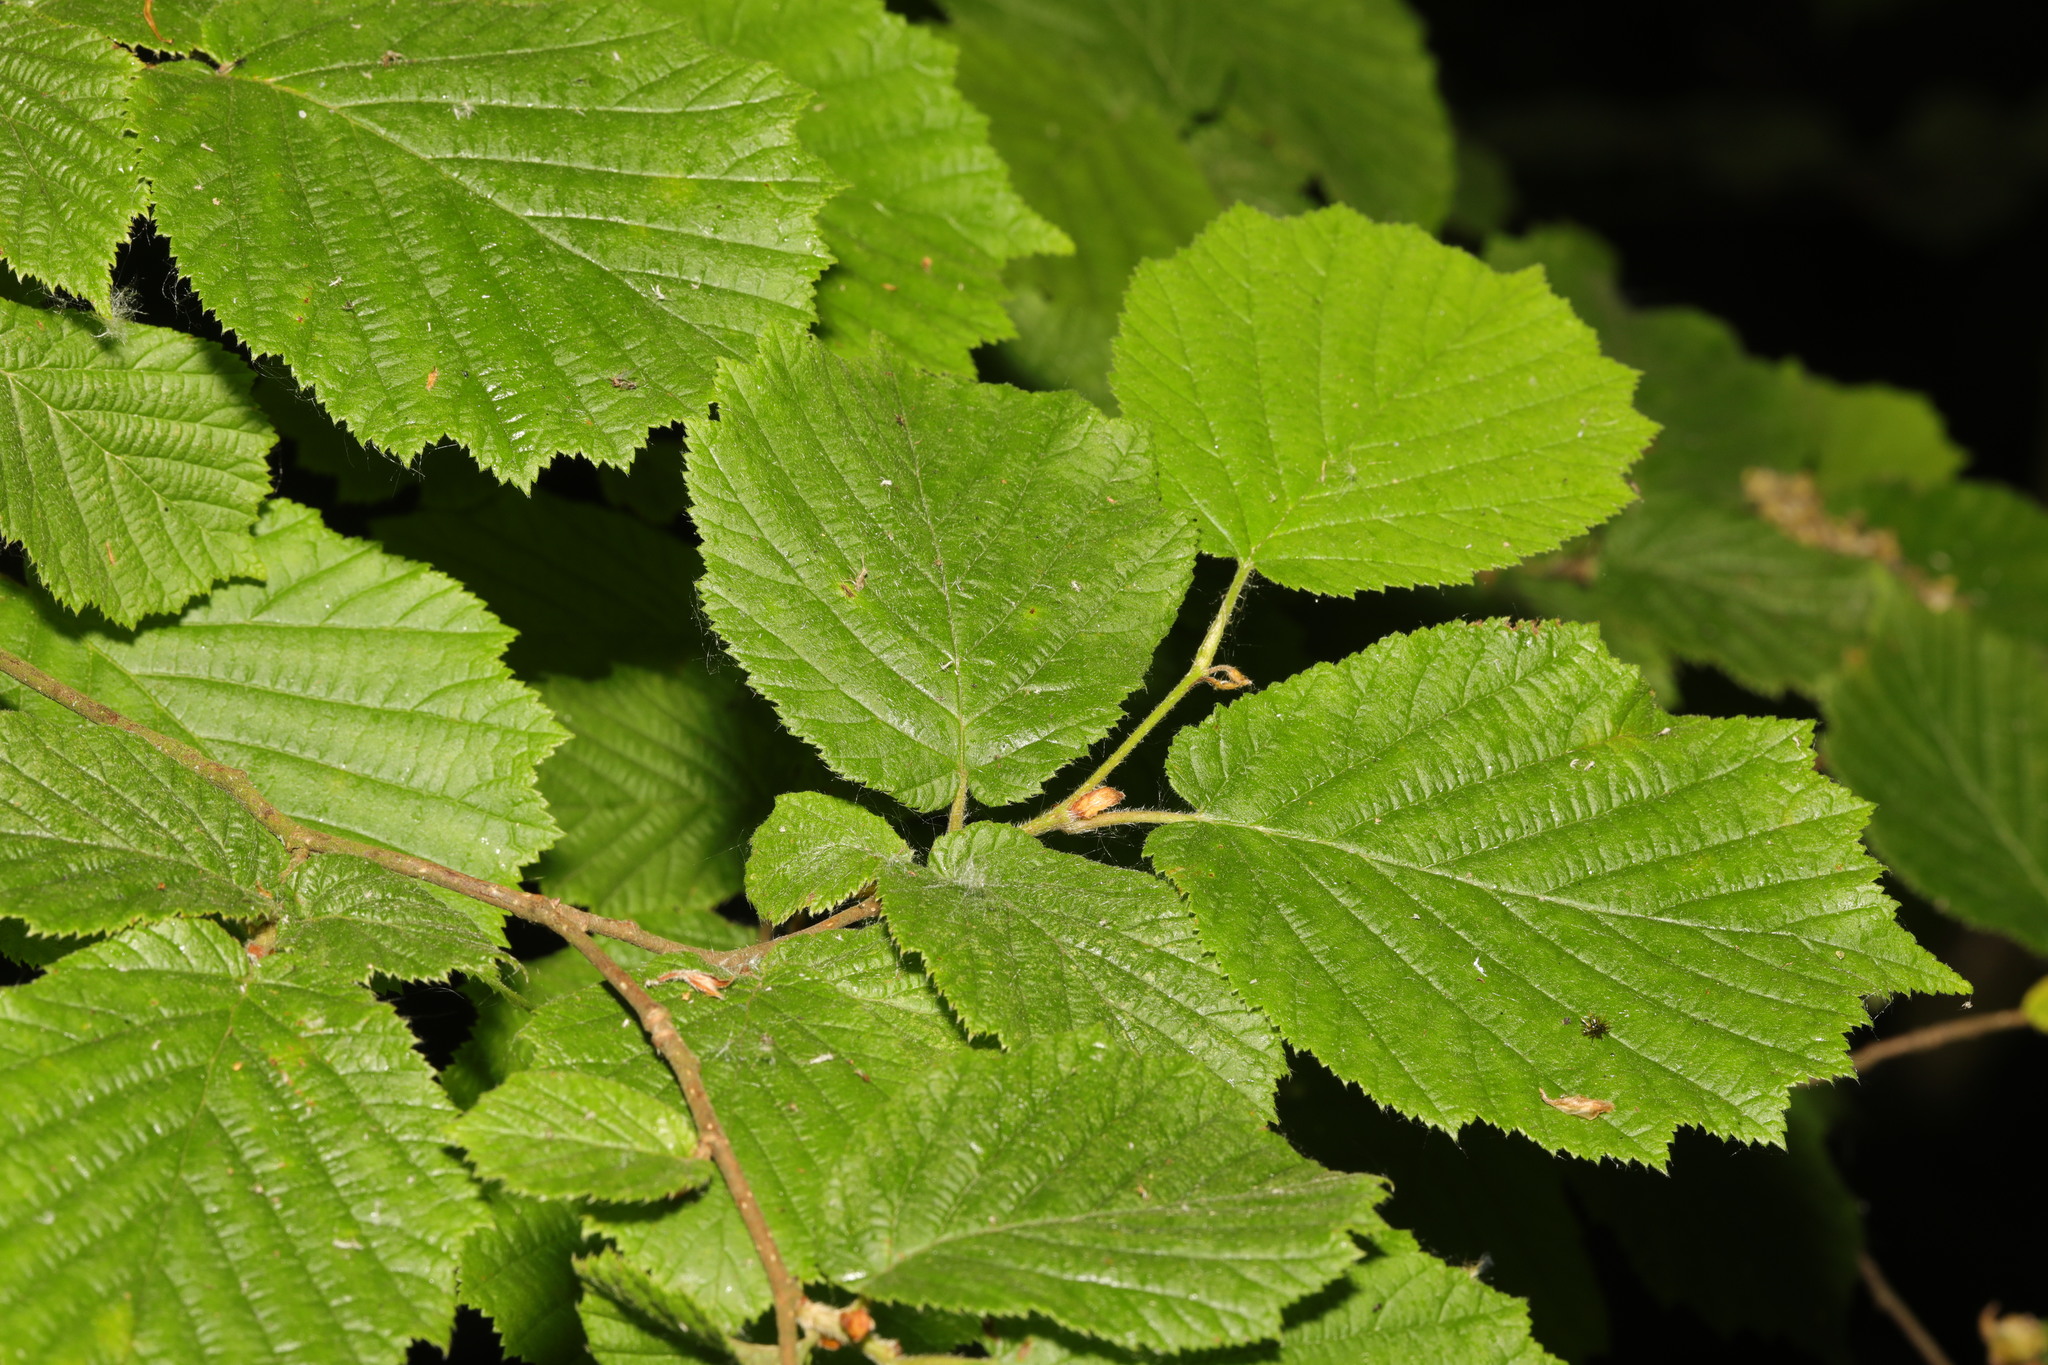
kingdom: Plantae
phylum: Tracheophyta
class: Magnoliopsida
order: Fagales
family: Betulaceae
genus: Corylus
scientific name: Corylus avellana
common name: European hazel
